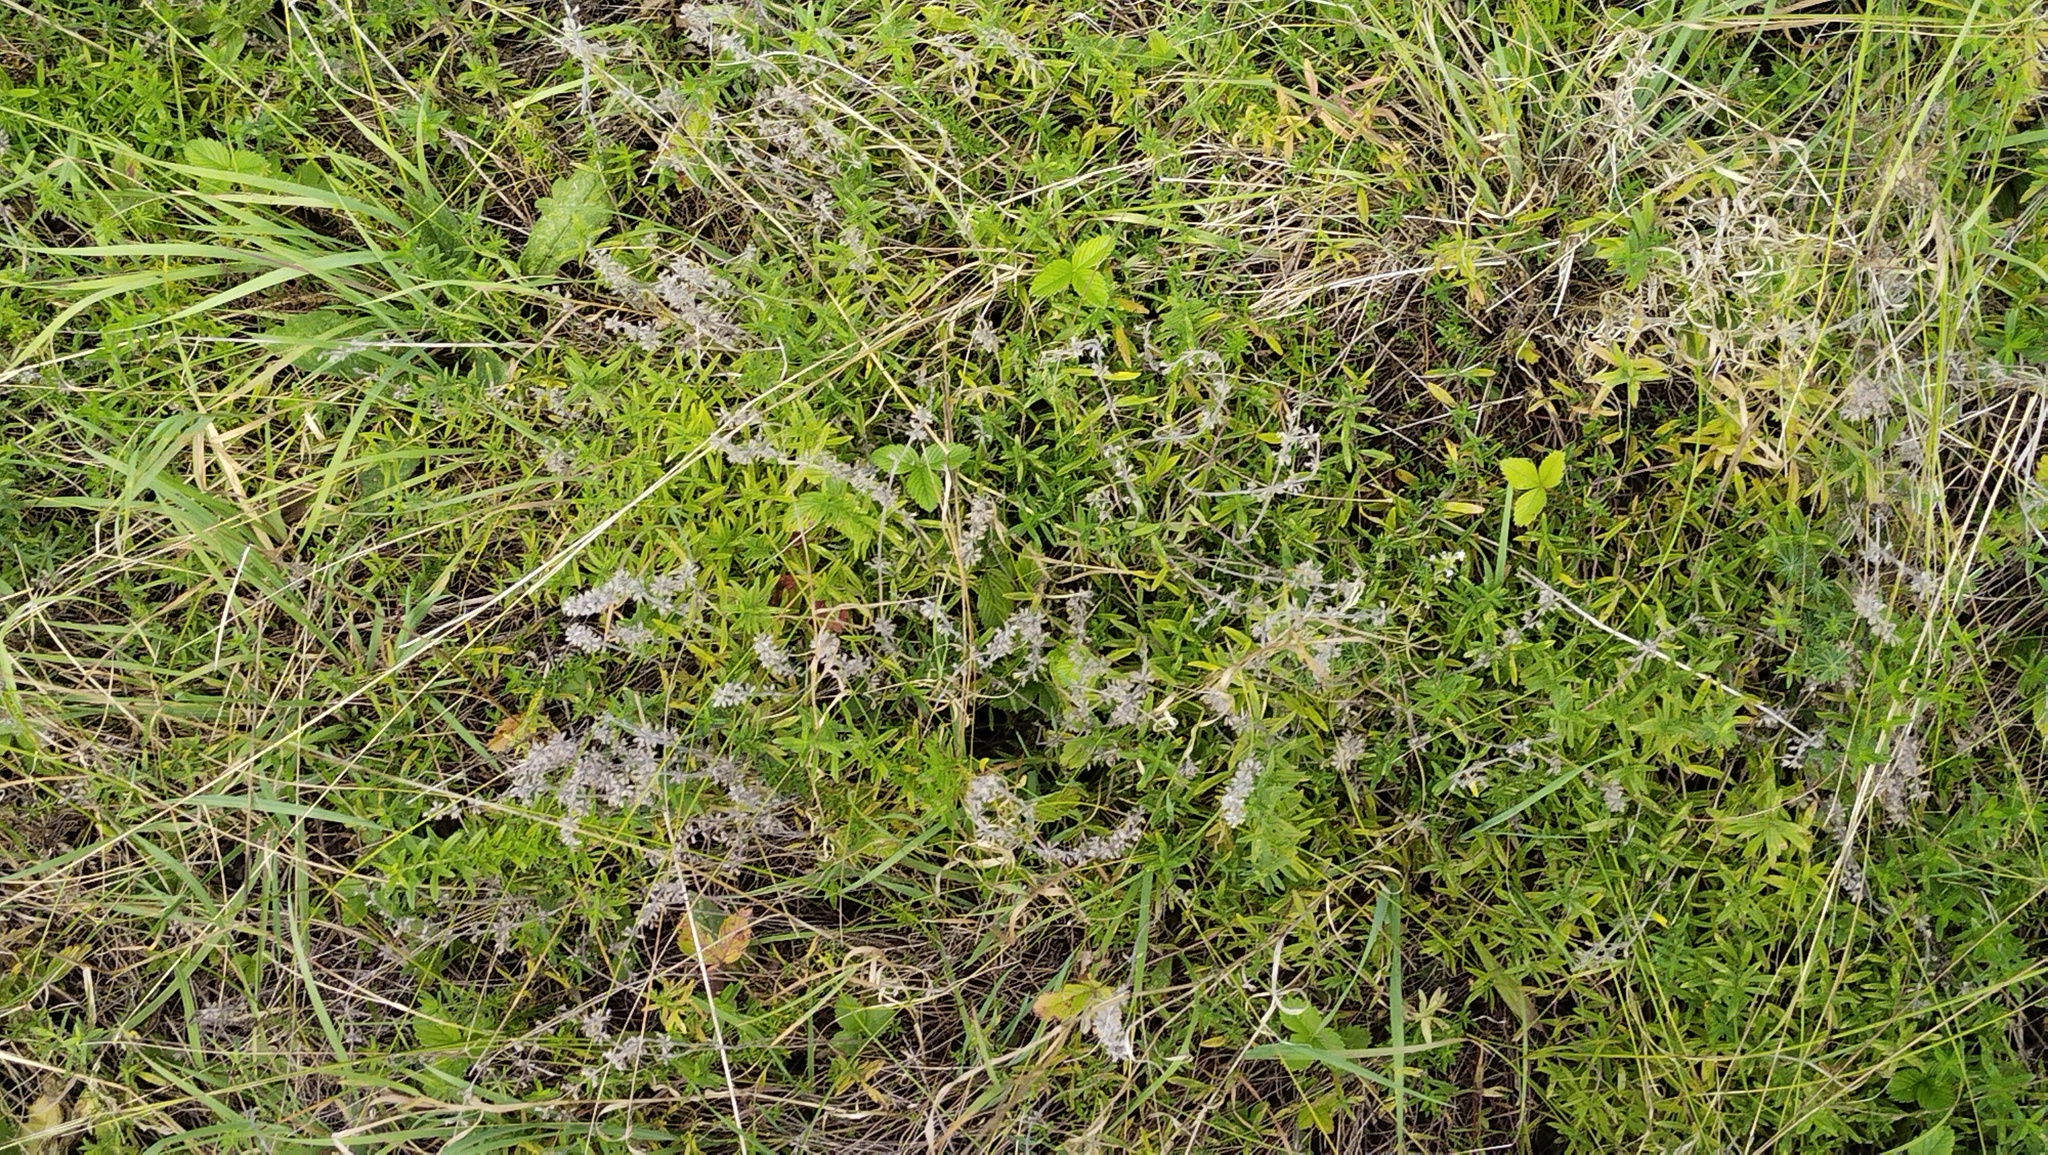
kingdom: Plantae
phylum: Tracheophyta
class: Magnoliopsida
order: Lamiales
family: Lamiaceae
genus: Thymus
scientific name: Thymus pannonicus
